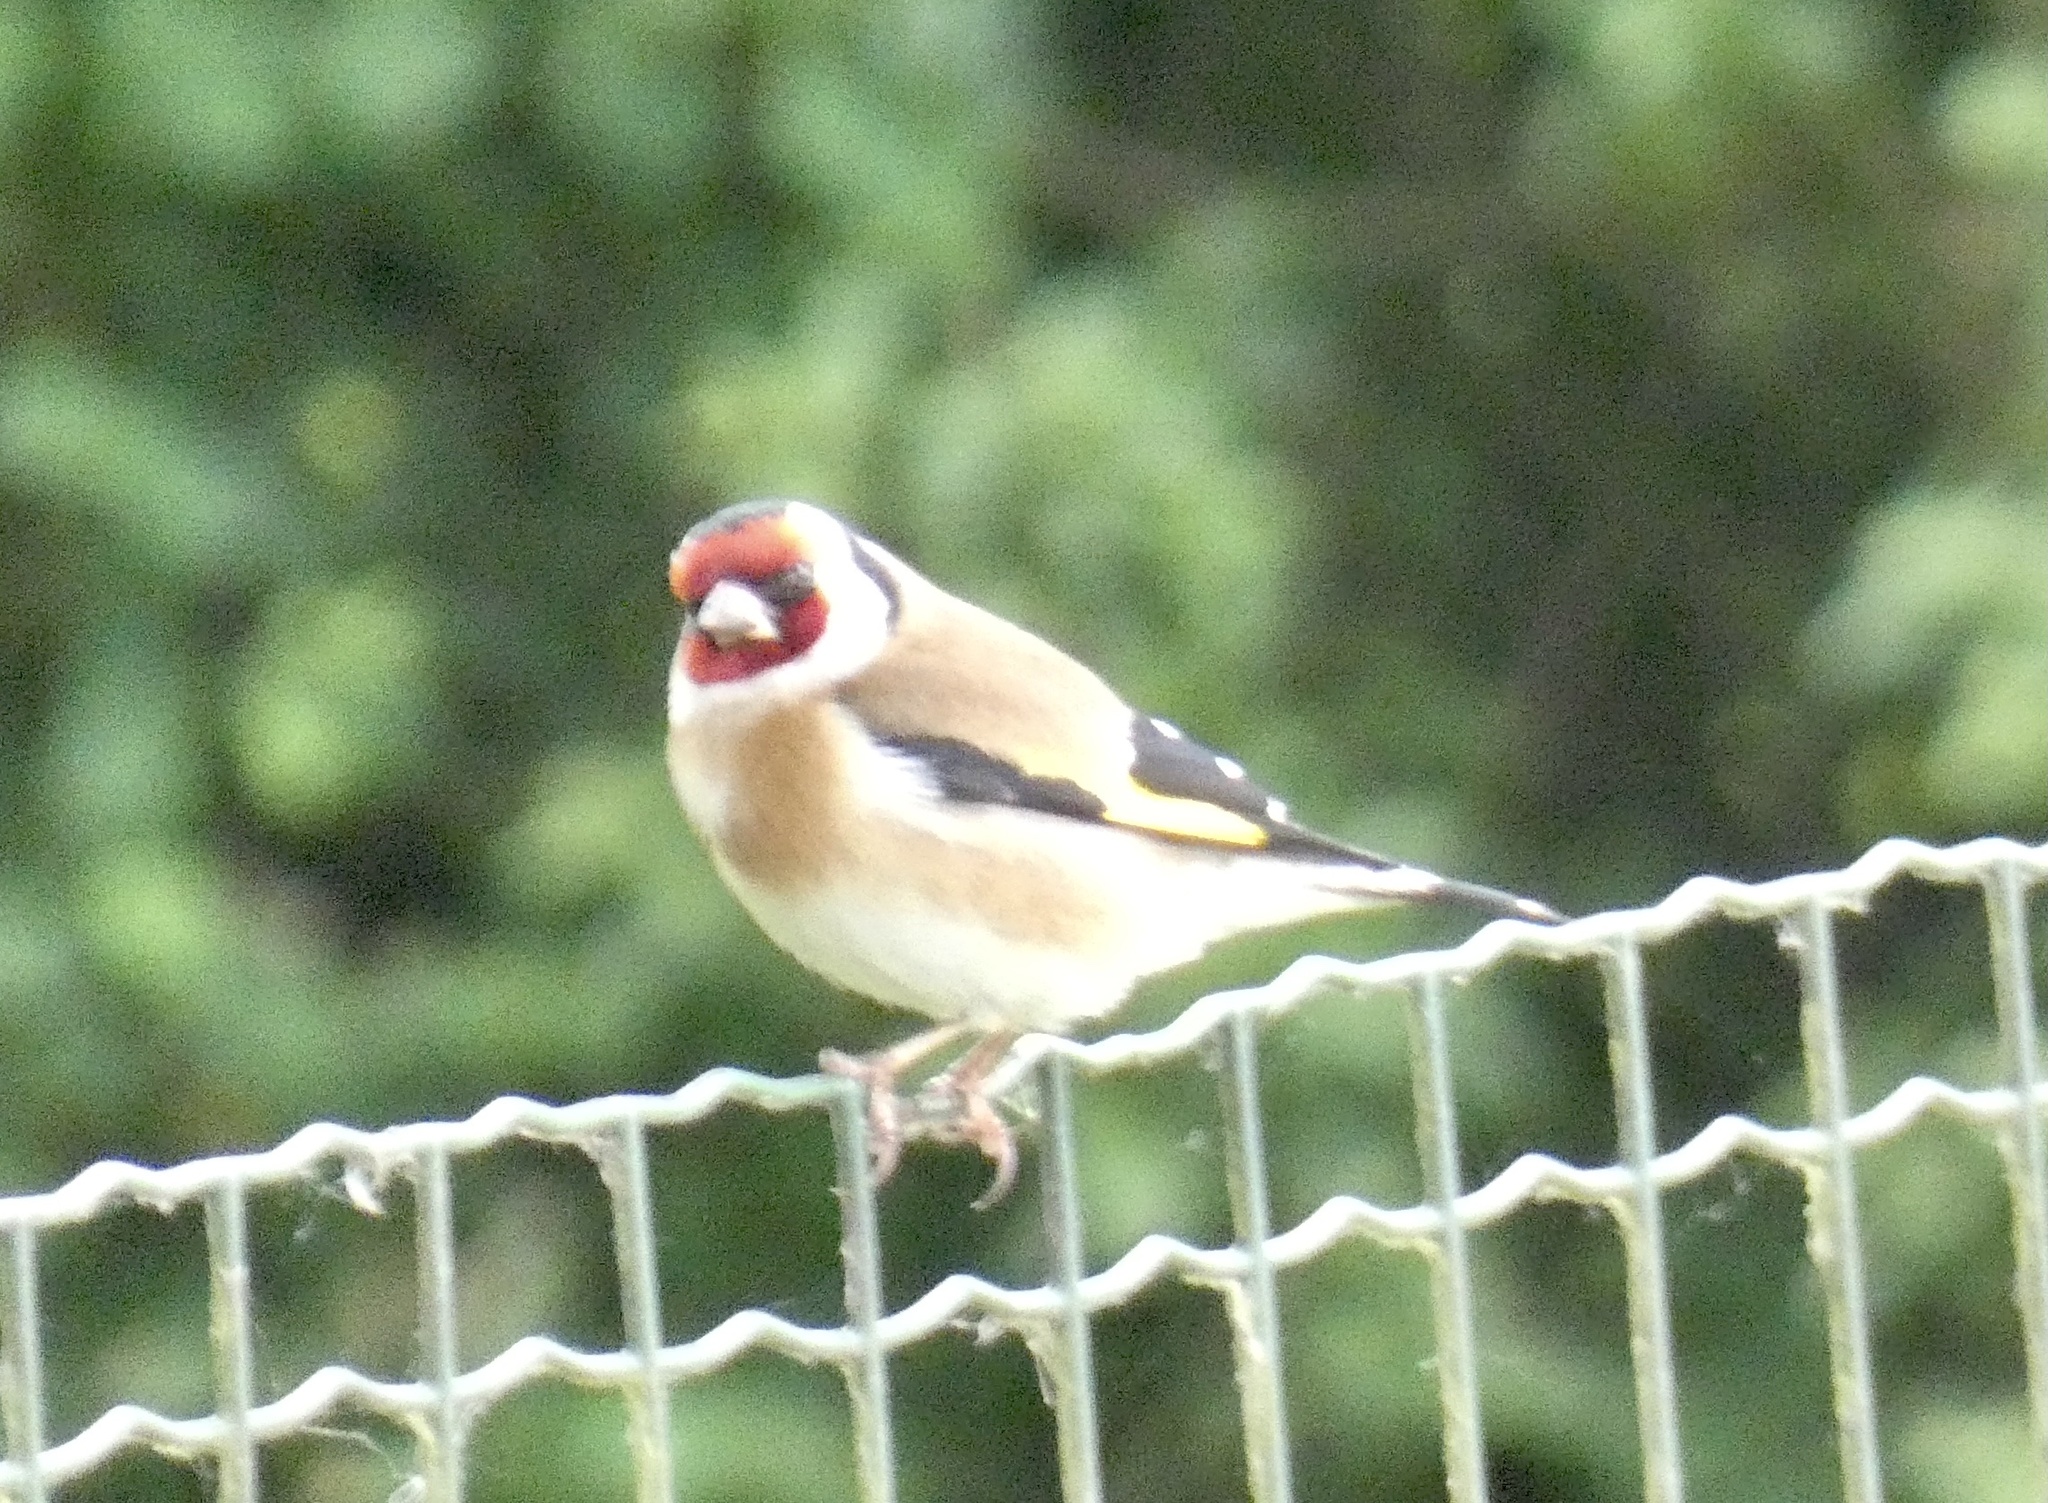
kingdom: Animalia
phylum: Chordata
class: Aves
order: Passeriformes
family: Fringillidae
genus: Carduelis
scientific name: Carduelis carduelis
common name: European goldfinch
